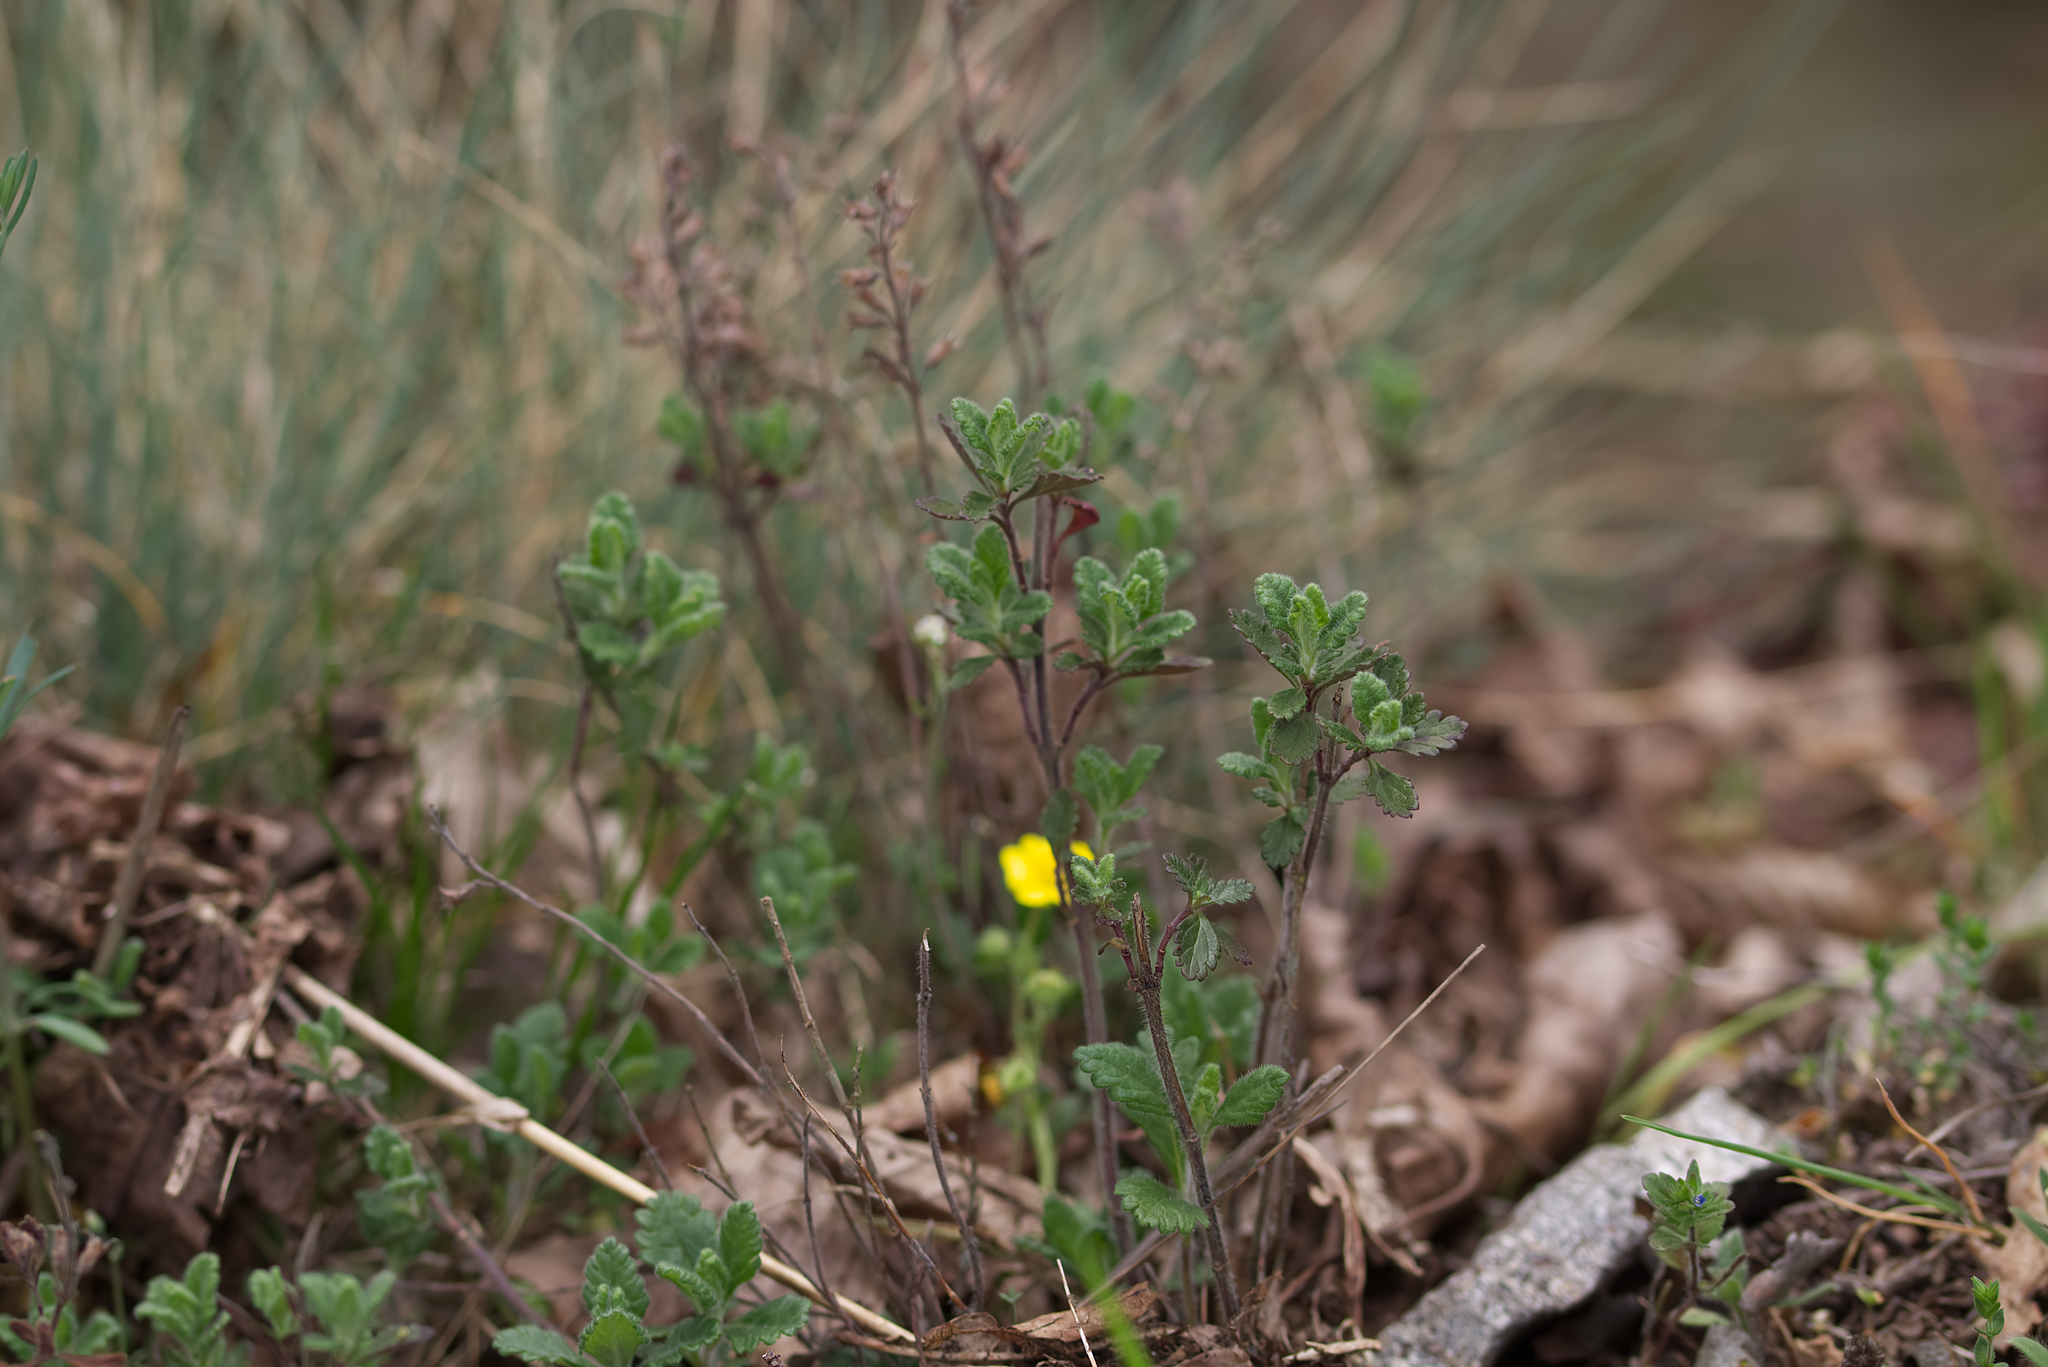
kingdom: Plantae
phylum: Tracheophyta
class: Magnoliopsida
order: Lamiales
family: Lamiaceae
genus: Teucrium
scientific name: Teucrium chamaedrys
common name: Wall germander
